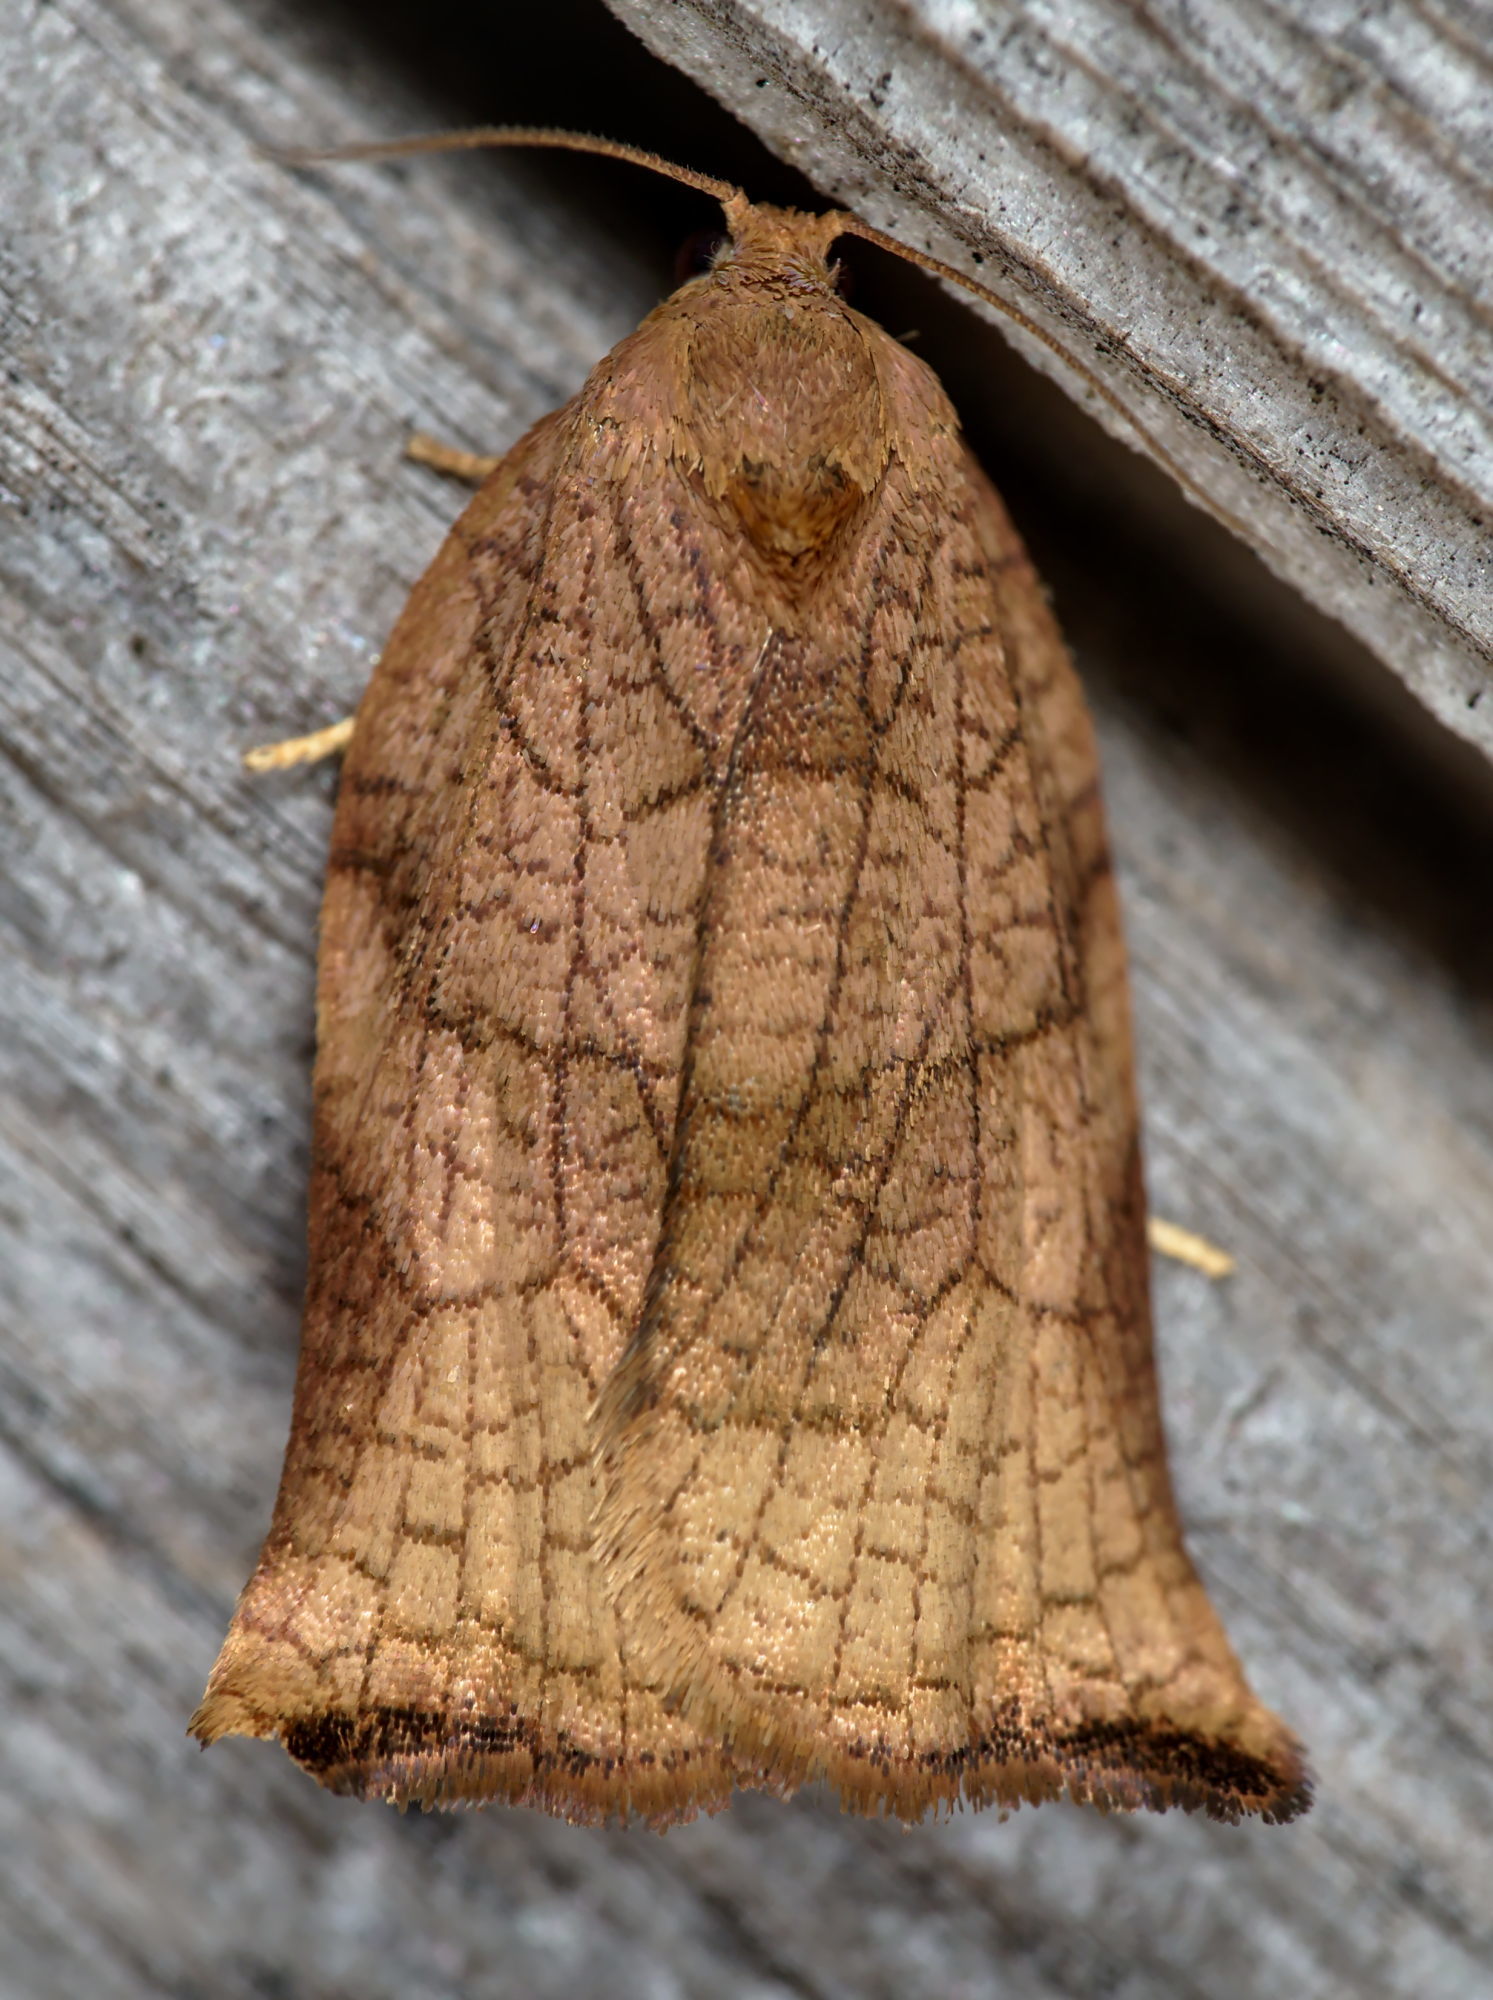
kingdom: Animalia
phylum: Arthropoda
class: Insecta
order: Lepidoptera
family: Tortricidae
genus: Archips
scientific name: Archips podana
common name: Large fruit-tree tortrix
